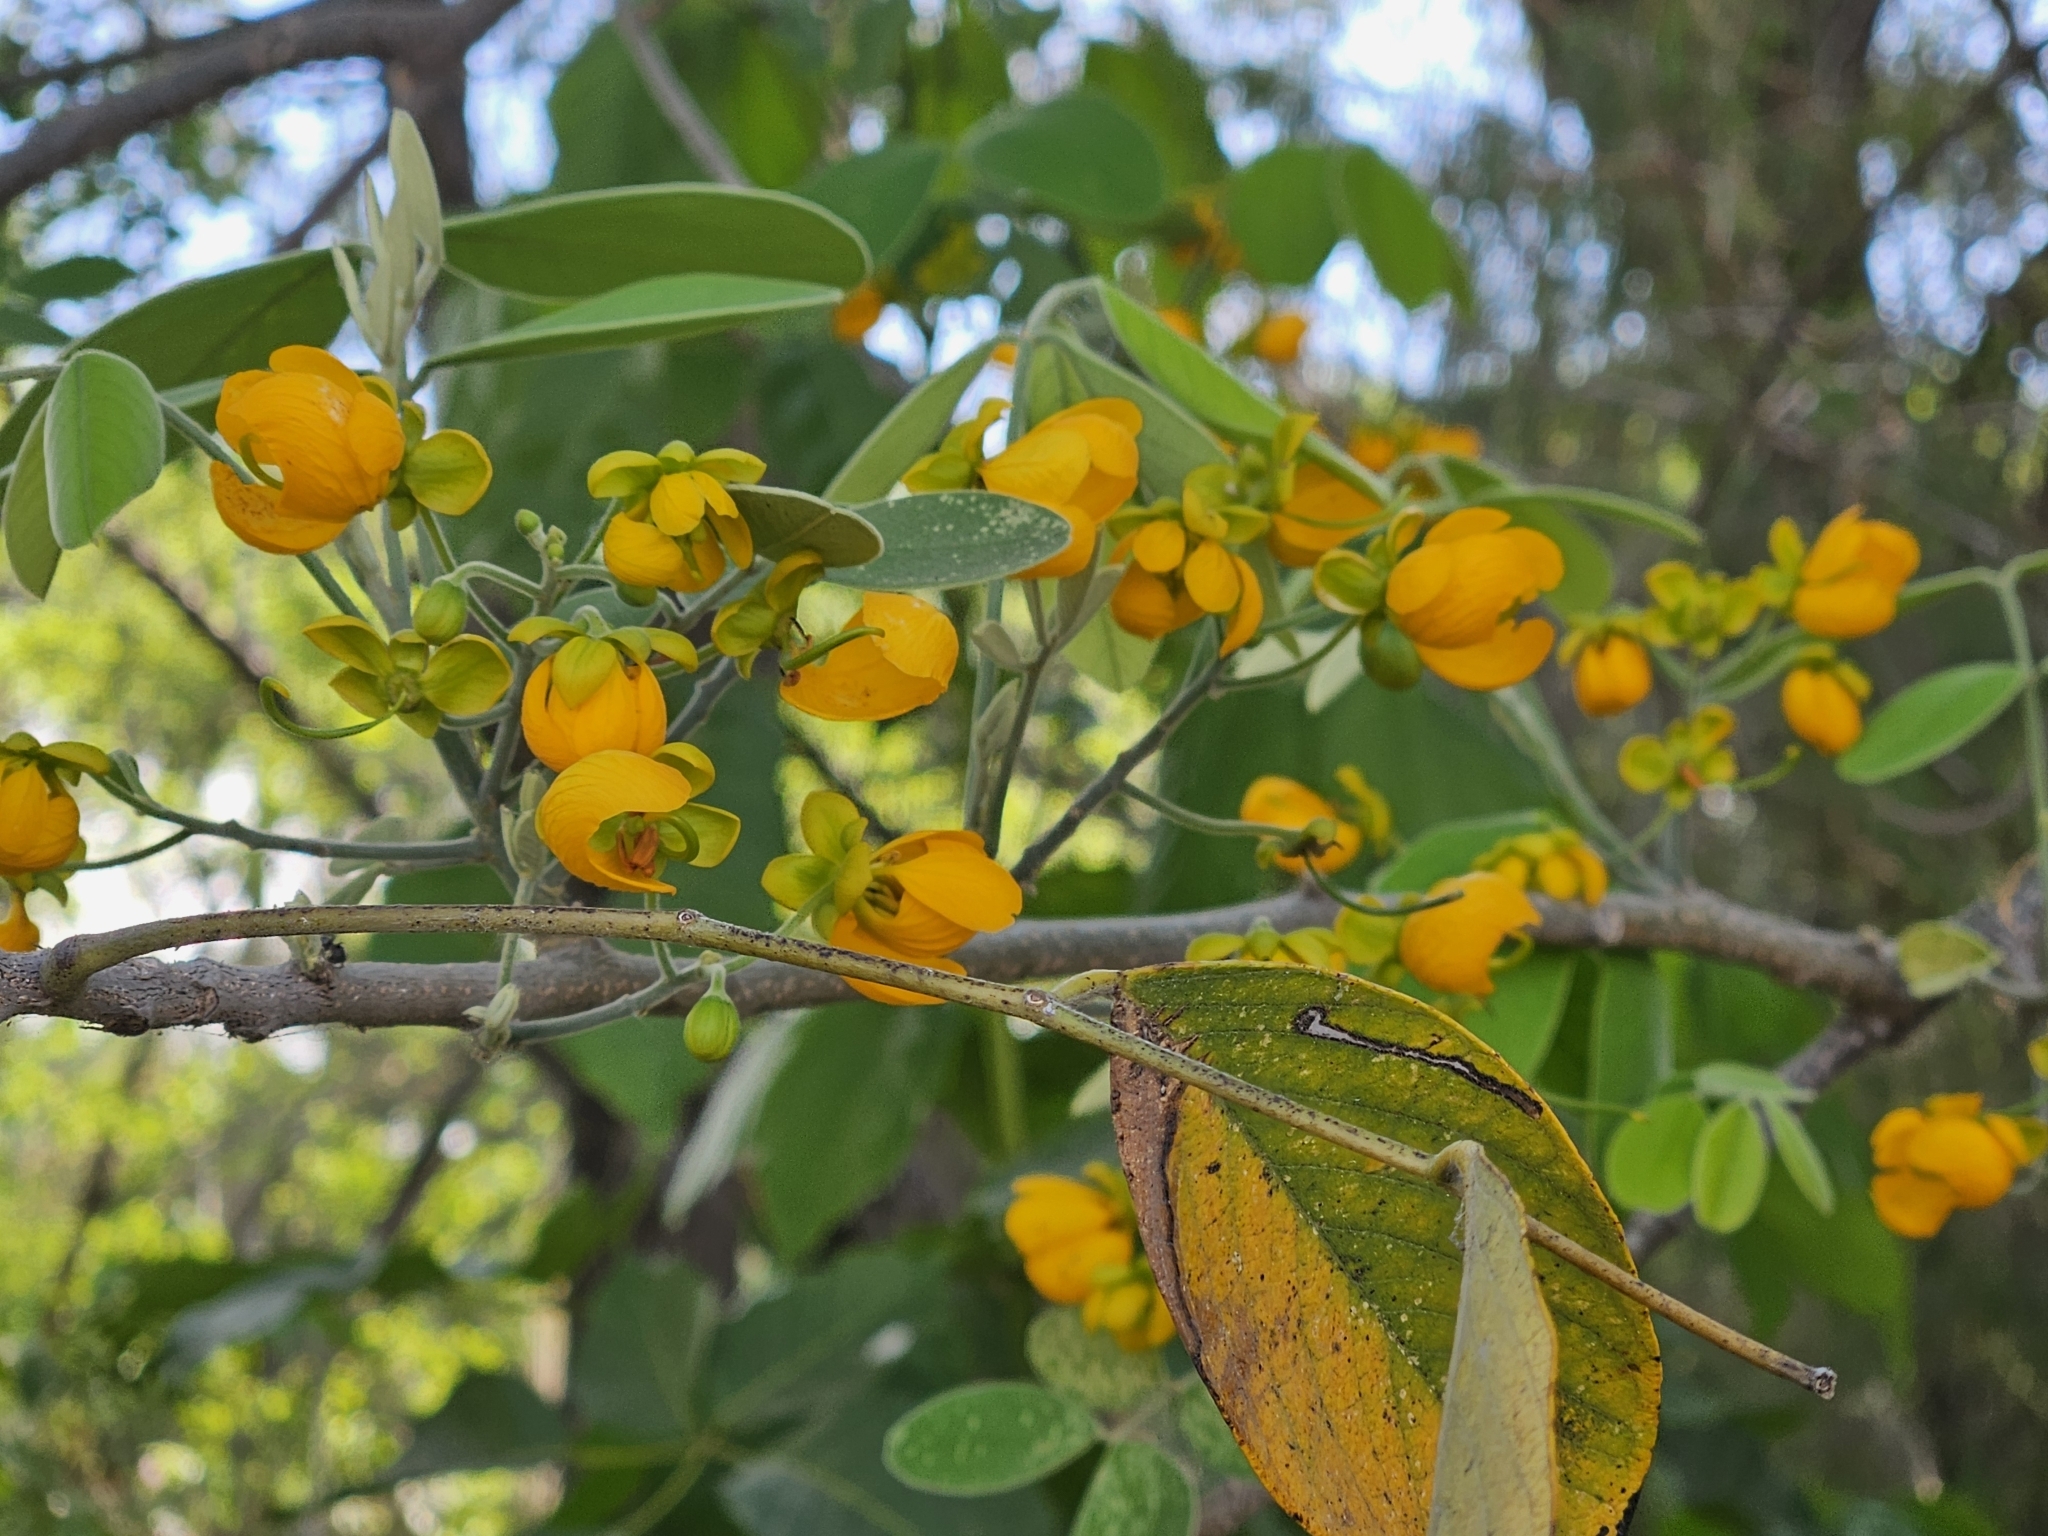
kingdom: Plantae
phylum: Tracheophyta
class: Magnoliopsida
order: Fabales
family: Fabaceae
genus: Senna
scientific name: Senna atomaria
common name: Flor de san jose
